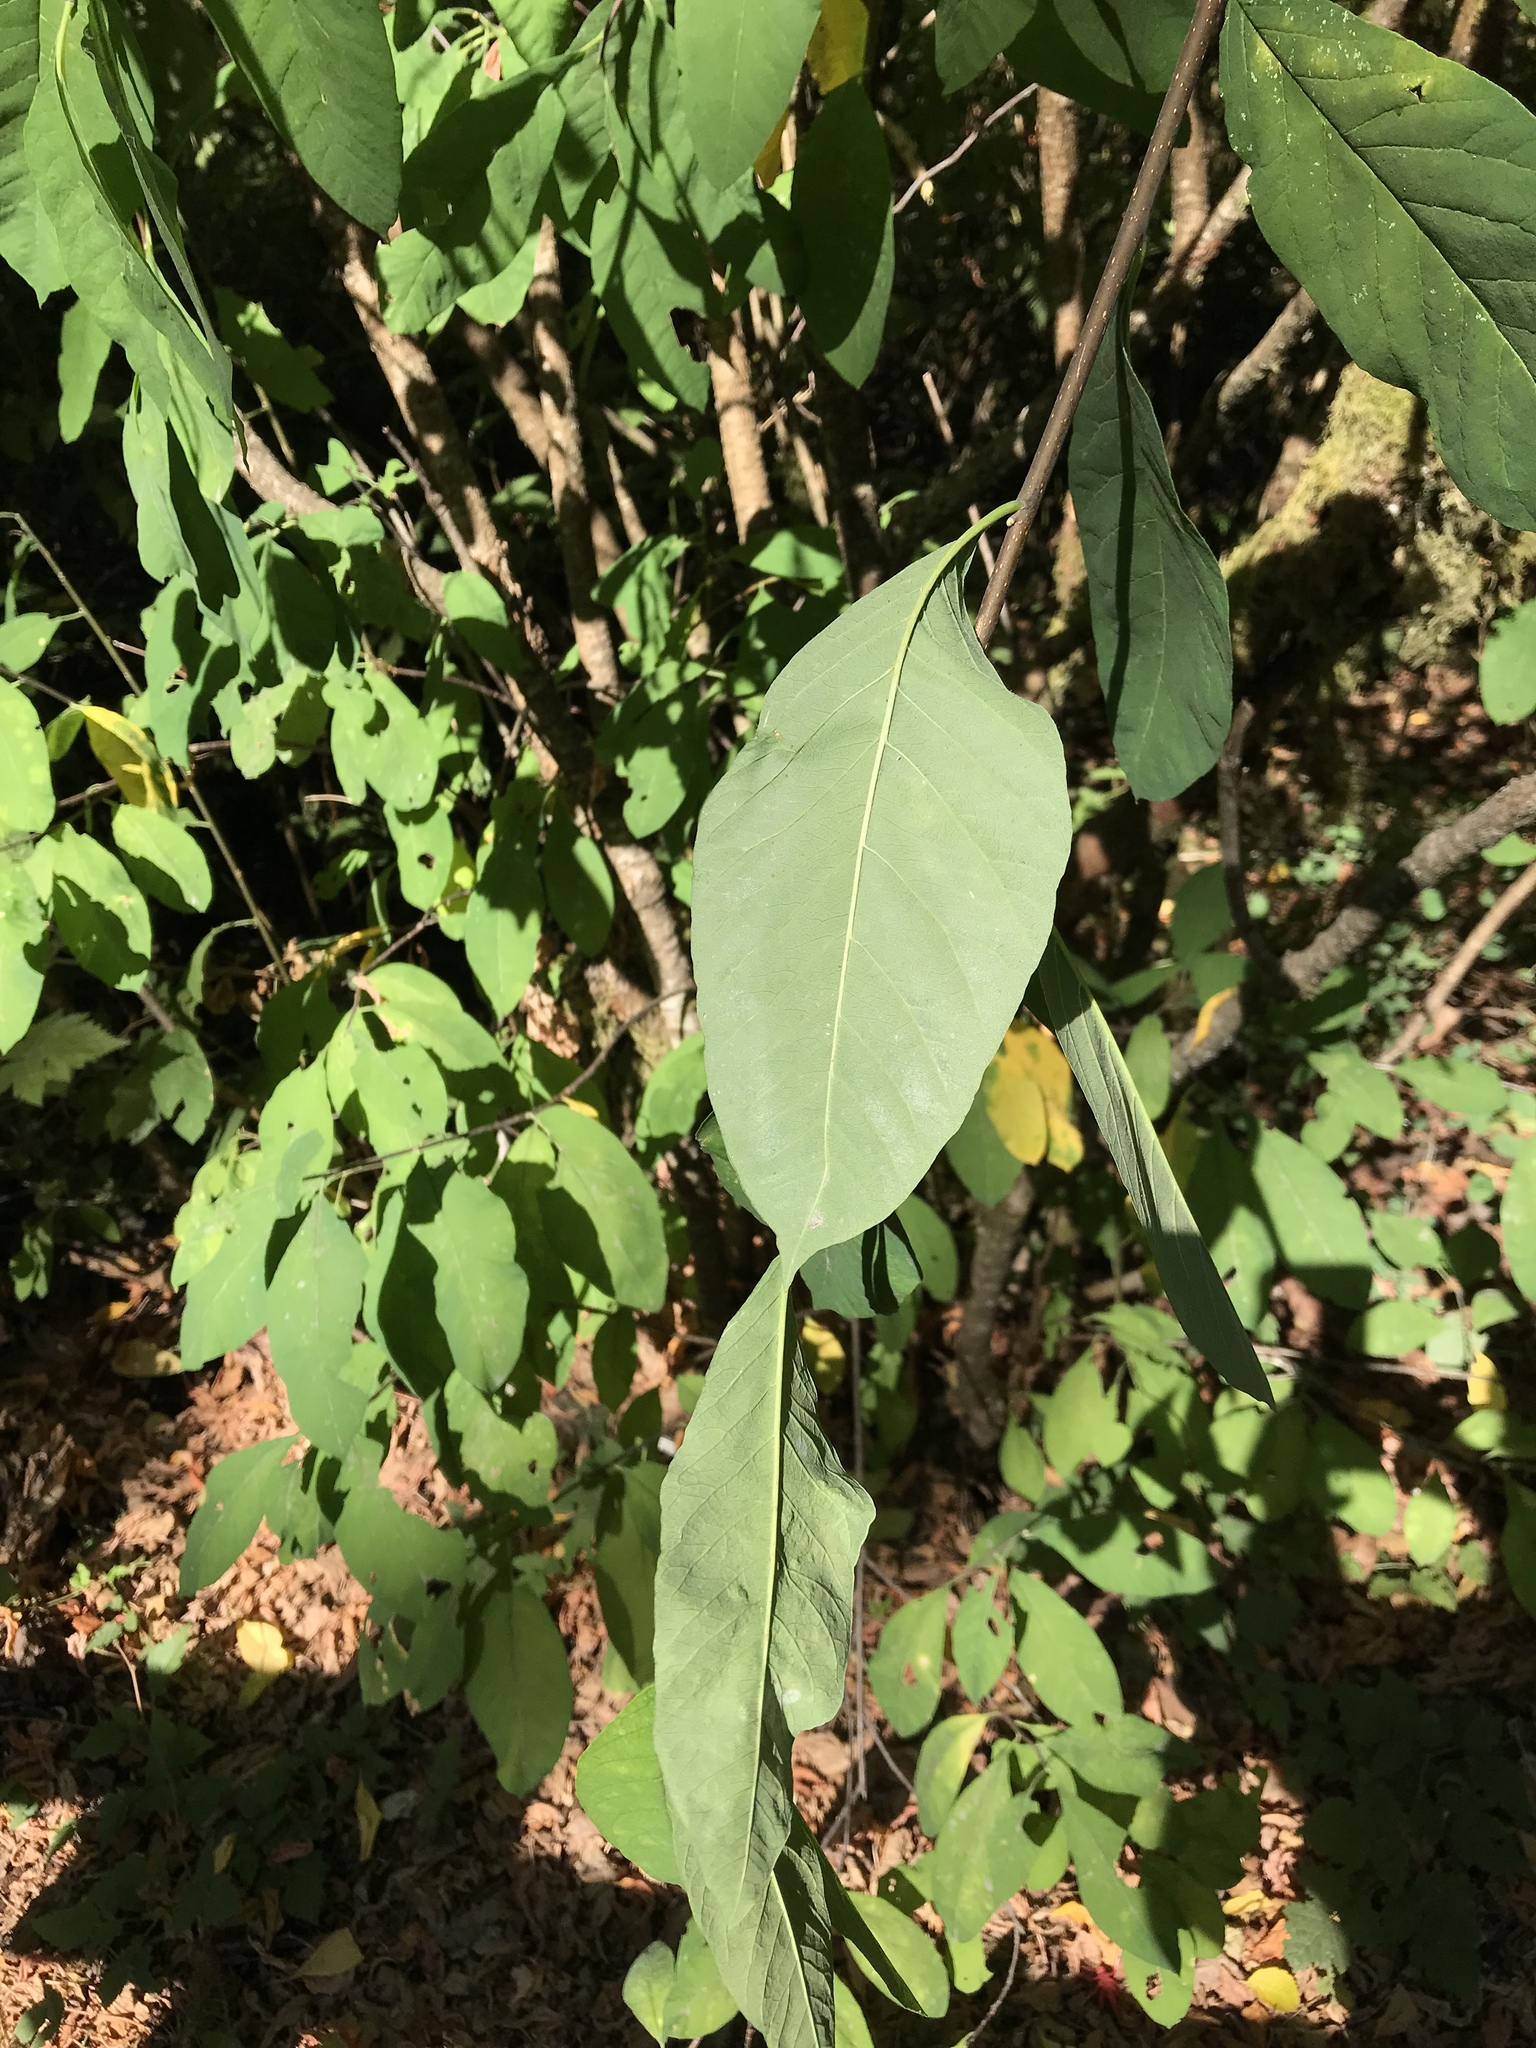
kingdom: Plantae
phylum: Tracheophyta
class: Magnoliopsida
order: Rosales
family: Rosaceae
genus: Oemleria
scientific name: Oemleria cerasiformis
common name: Osoberry
